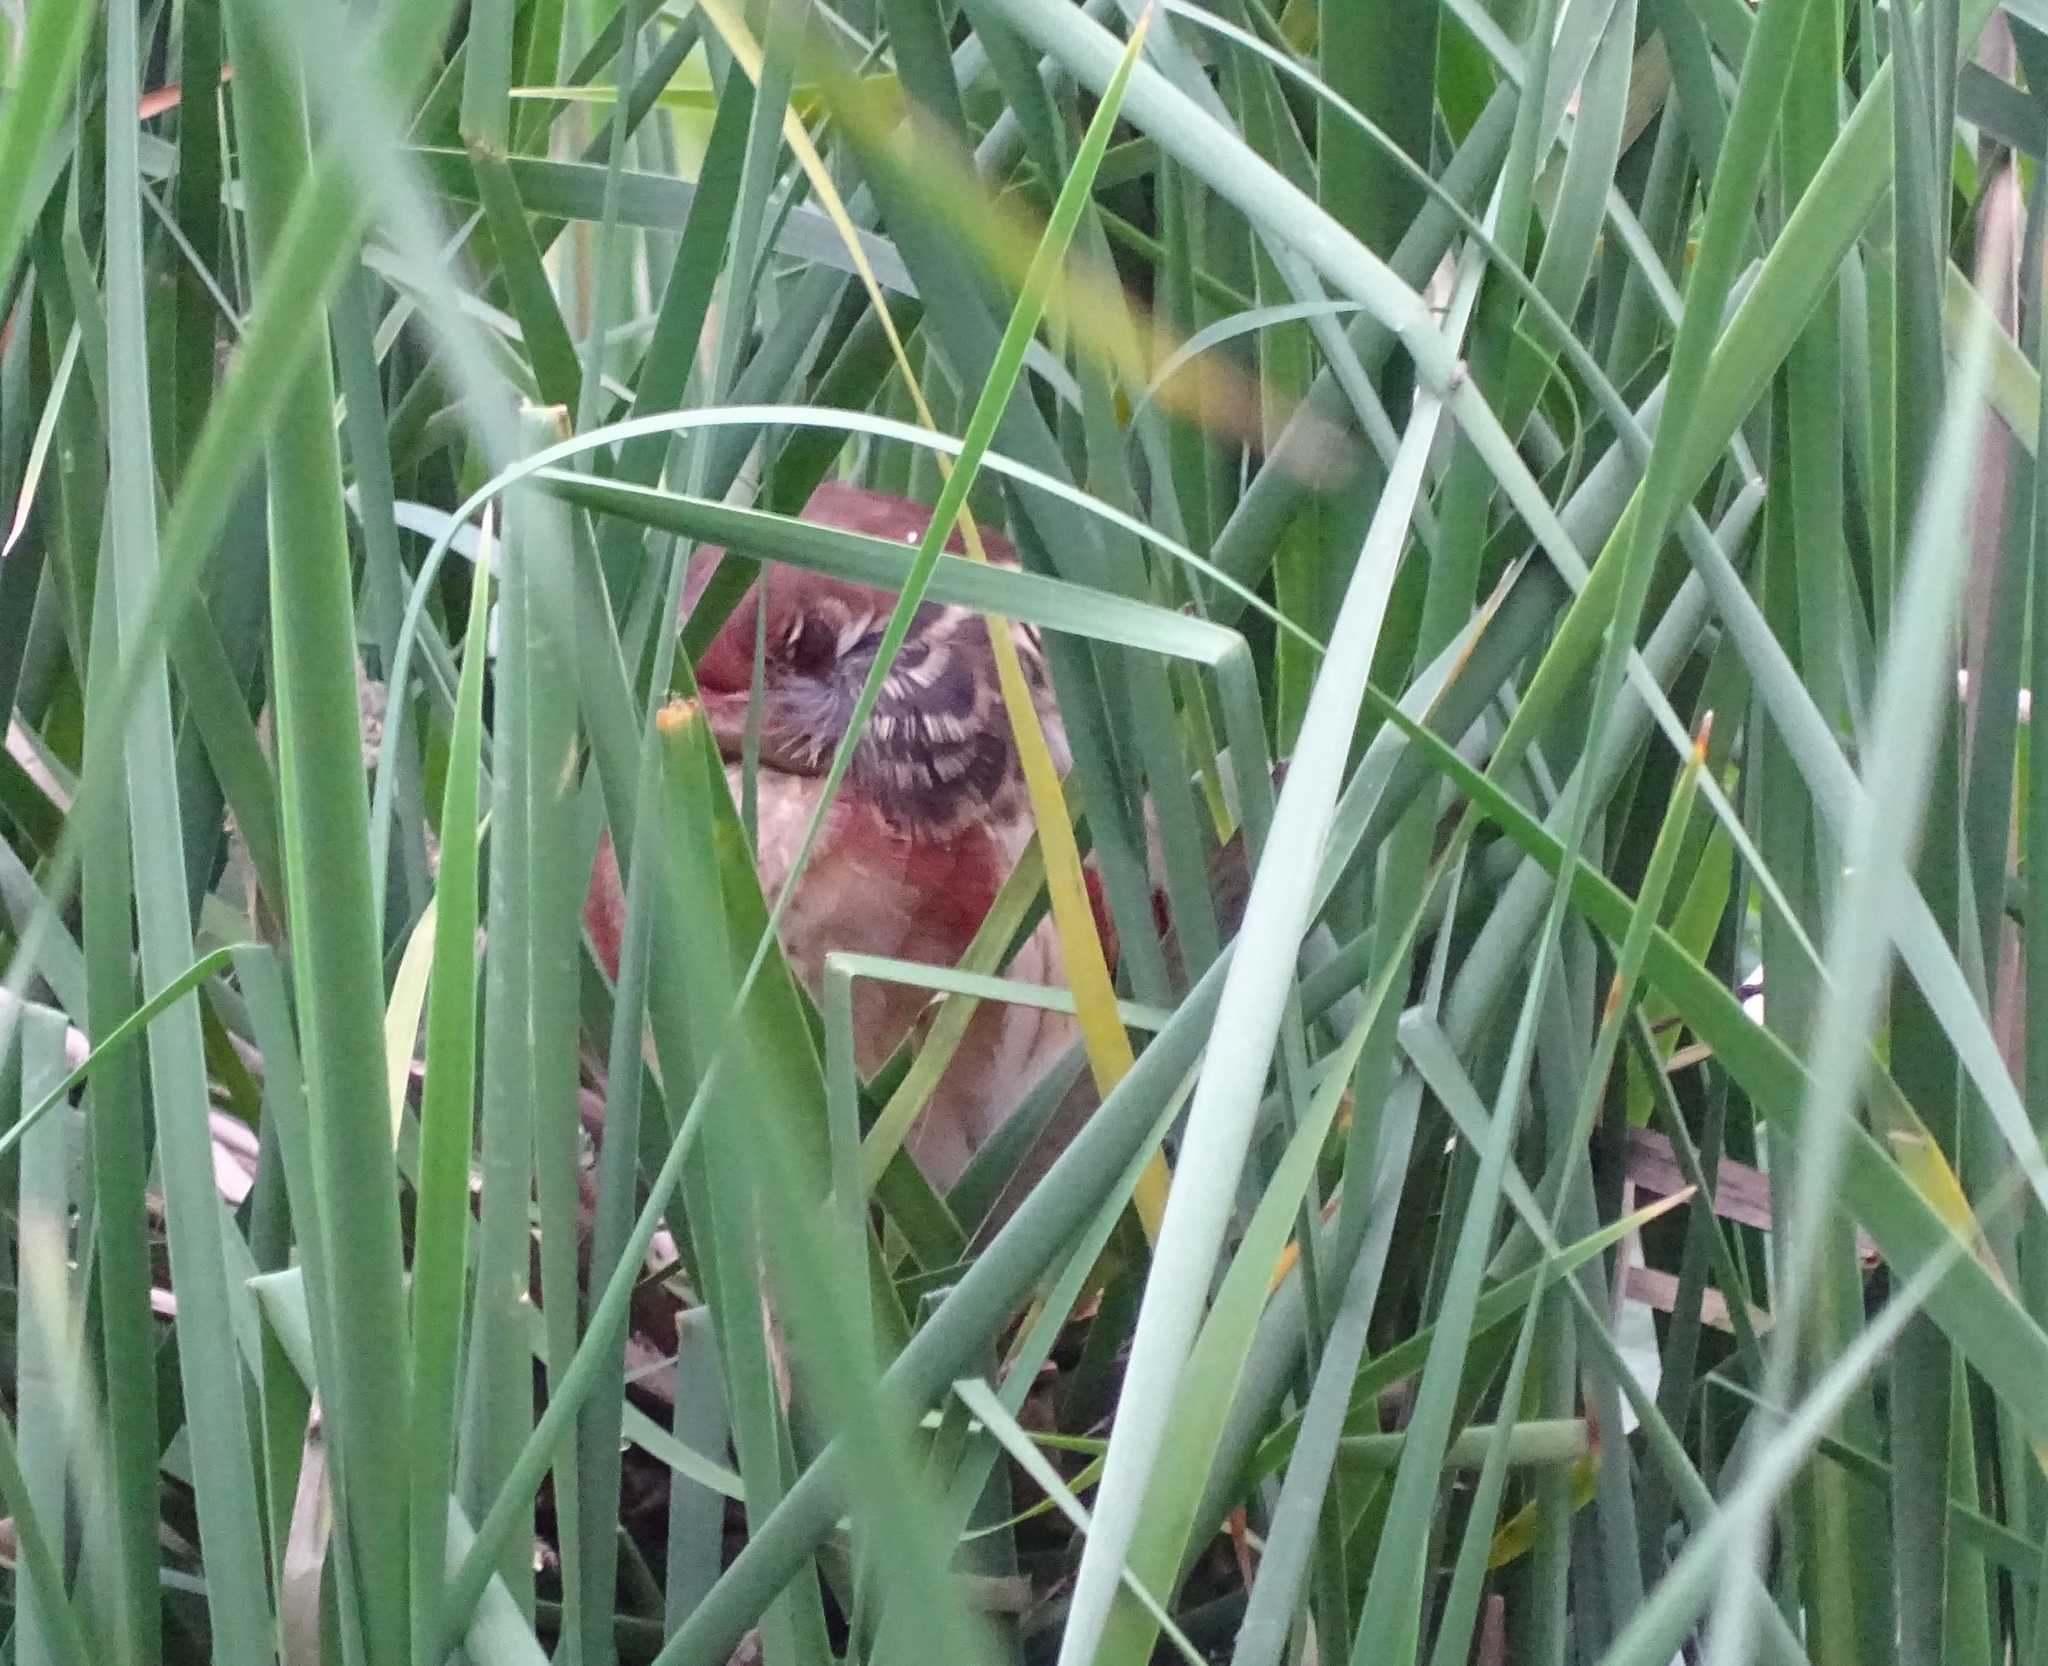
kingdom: Animalia
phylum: Chordata
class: Aves
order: Pelecaniformes
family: Ardeidae
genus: Ixobrychus
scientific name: Ixobrychus exilis
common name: Least bittern
